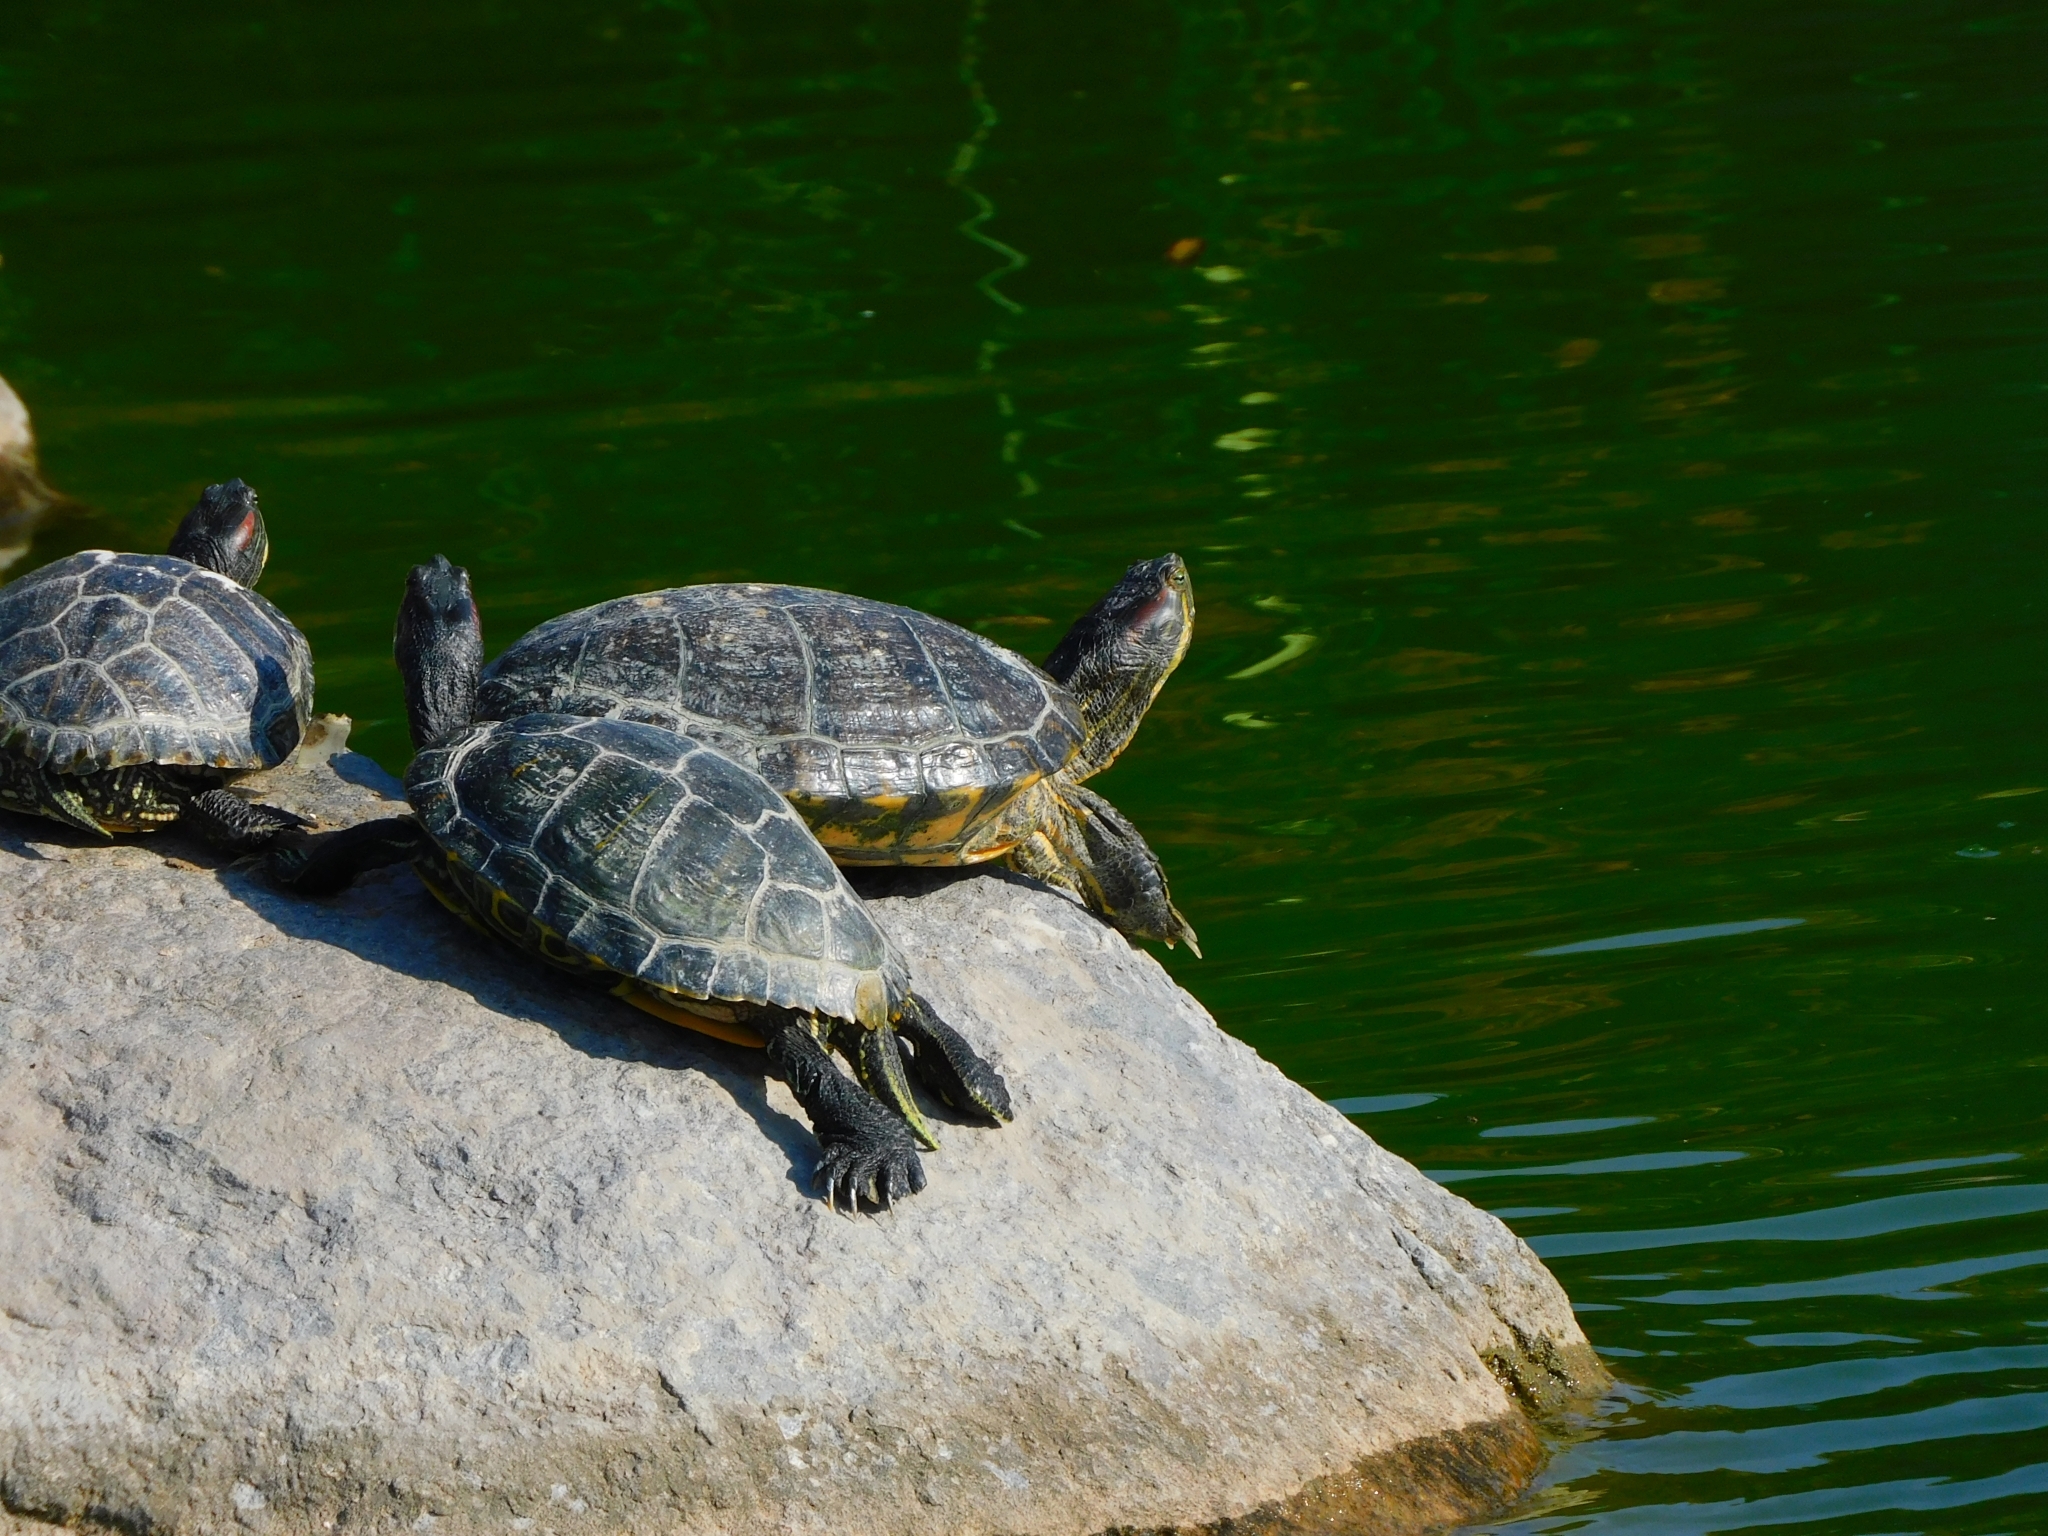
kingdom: Animalia
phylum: Chordata
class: Testudines
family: Emydidae
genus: Trachemys
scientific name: Trachemys scripta
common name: Slider
